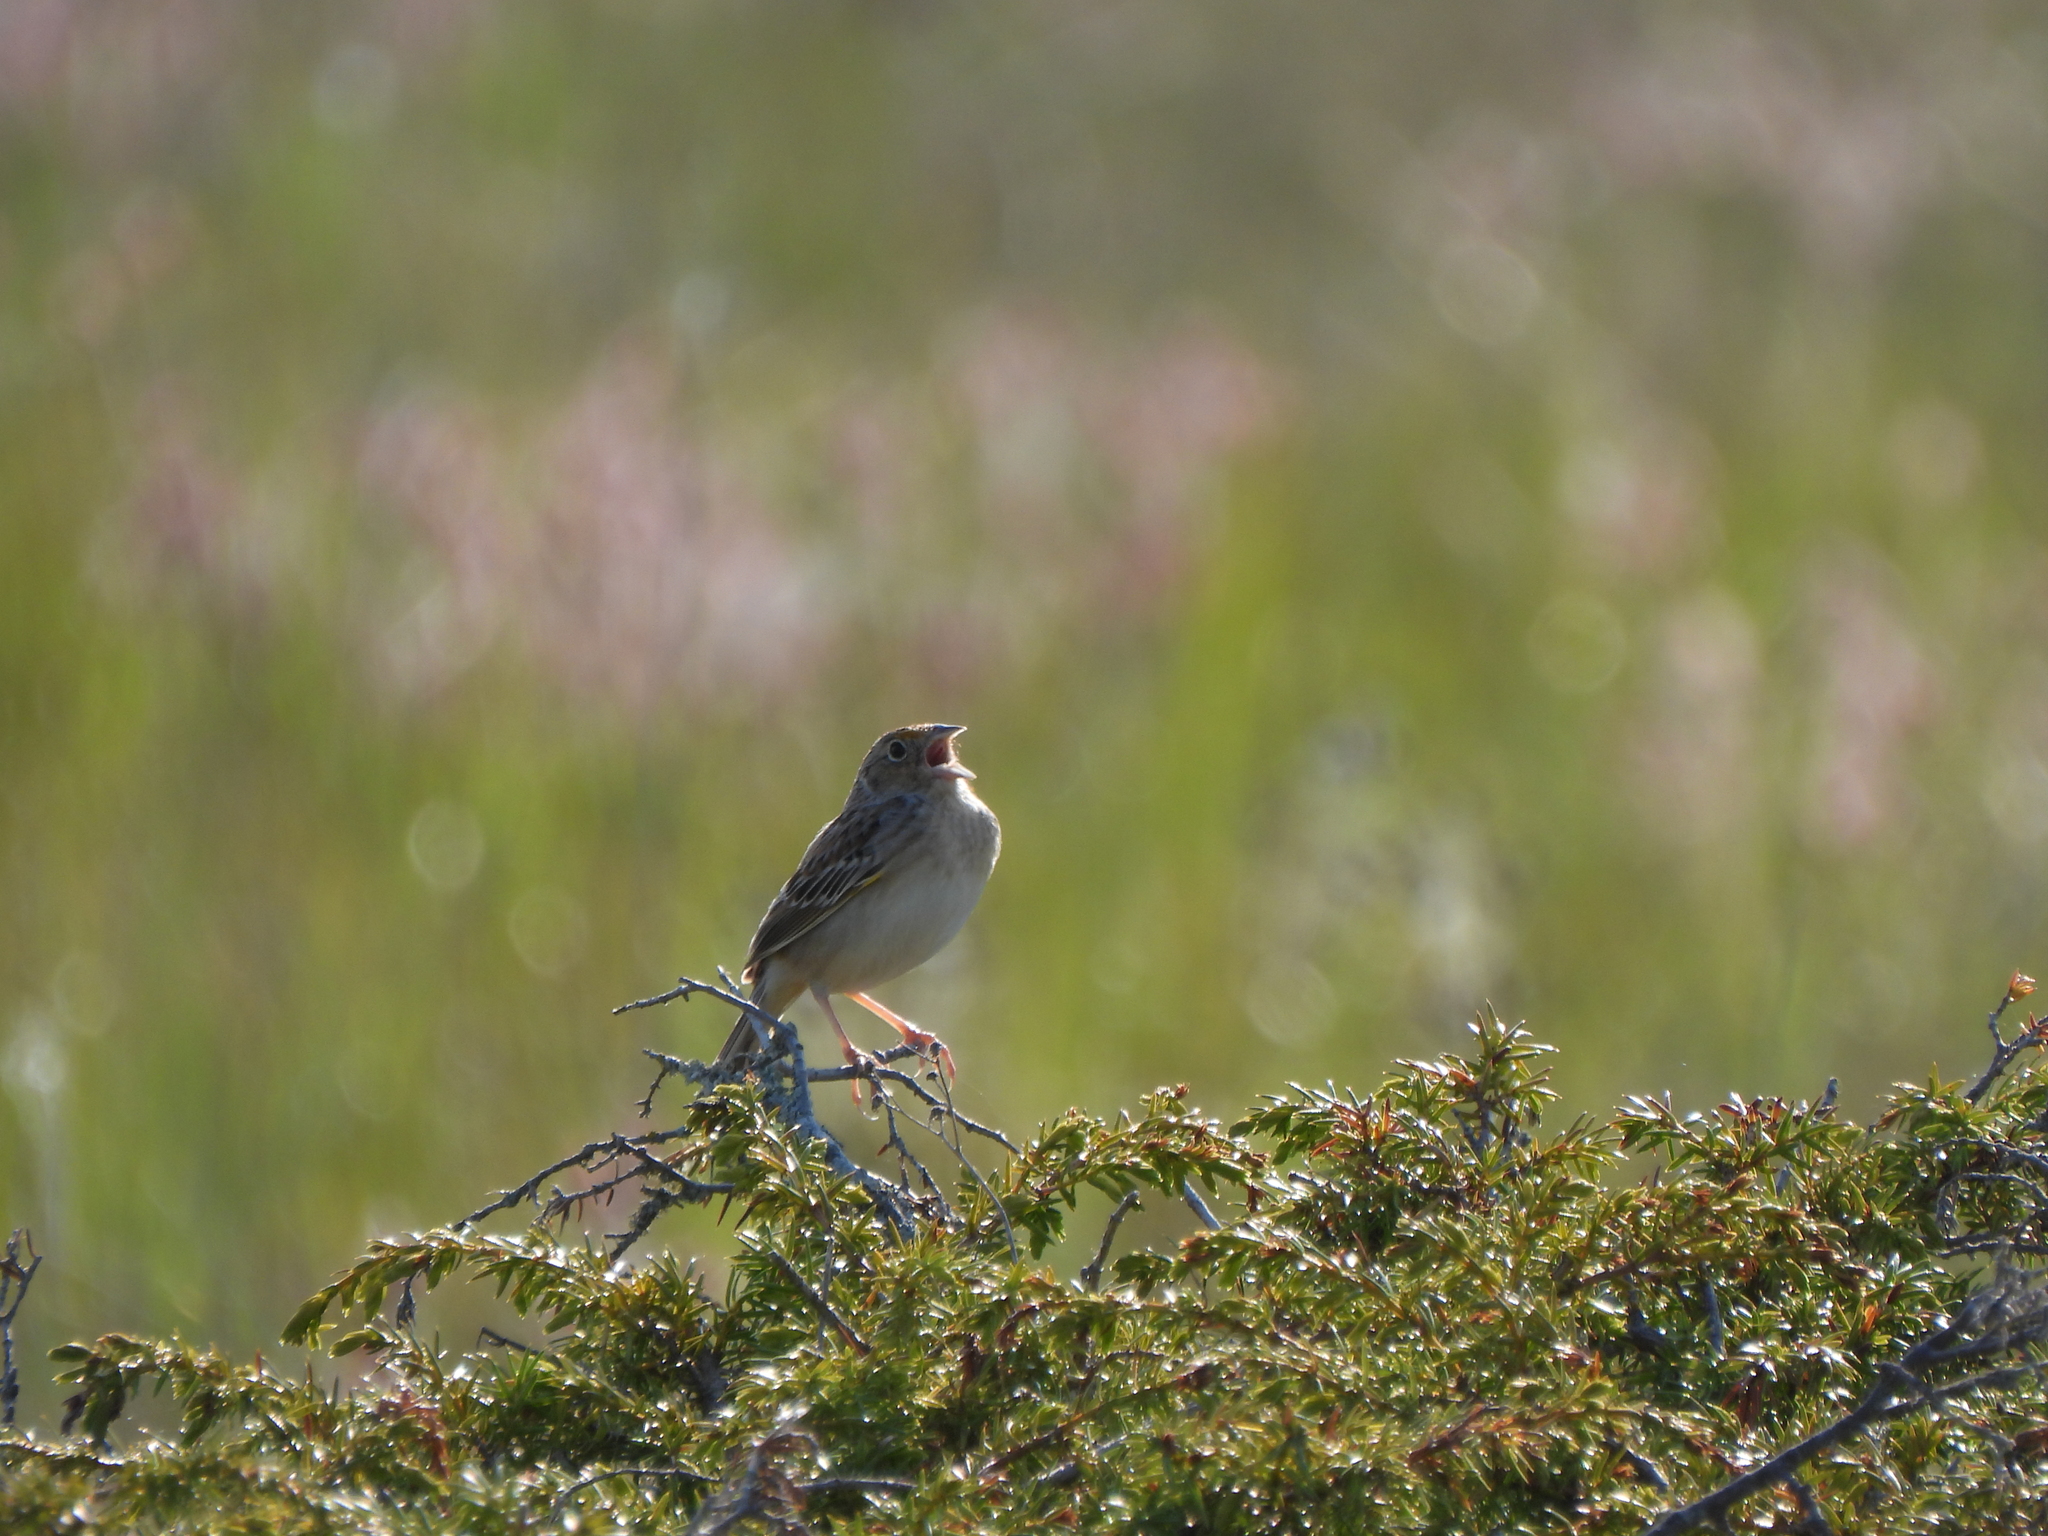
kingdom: Animalia
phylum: Chordata
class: Aves
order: Passeriformes
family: Passerellidae
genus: Ammodramus
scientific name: Ammodramus savannarum
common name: Grasshopper sparrow
